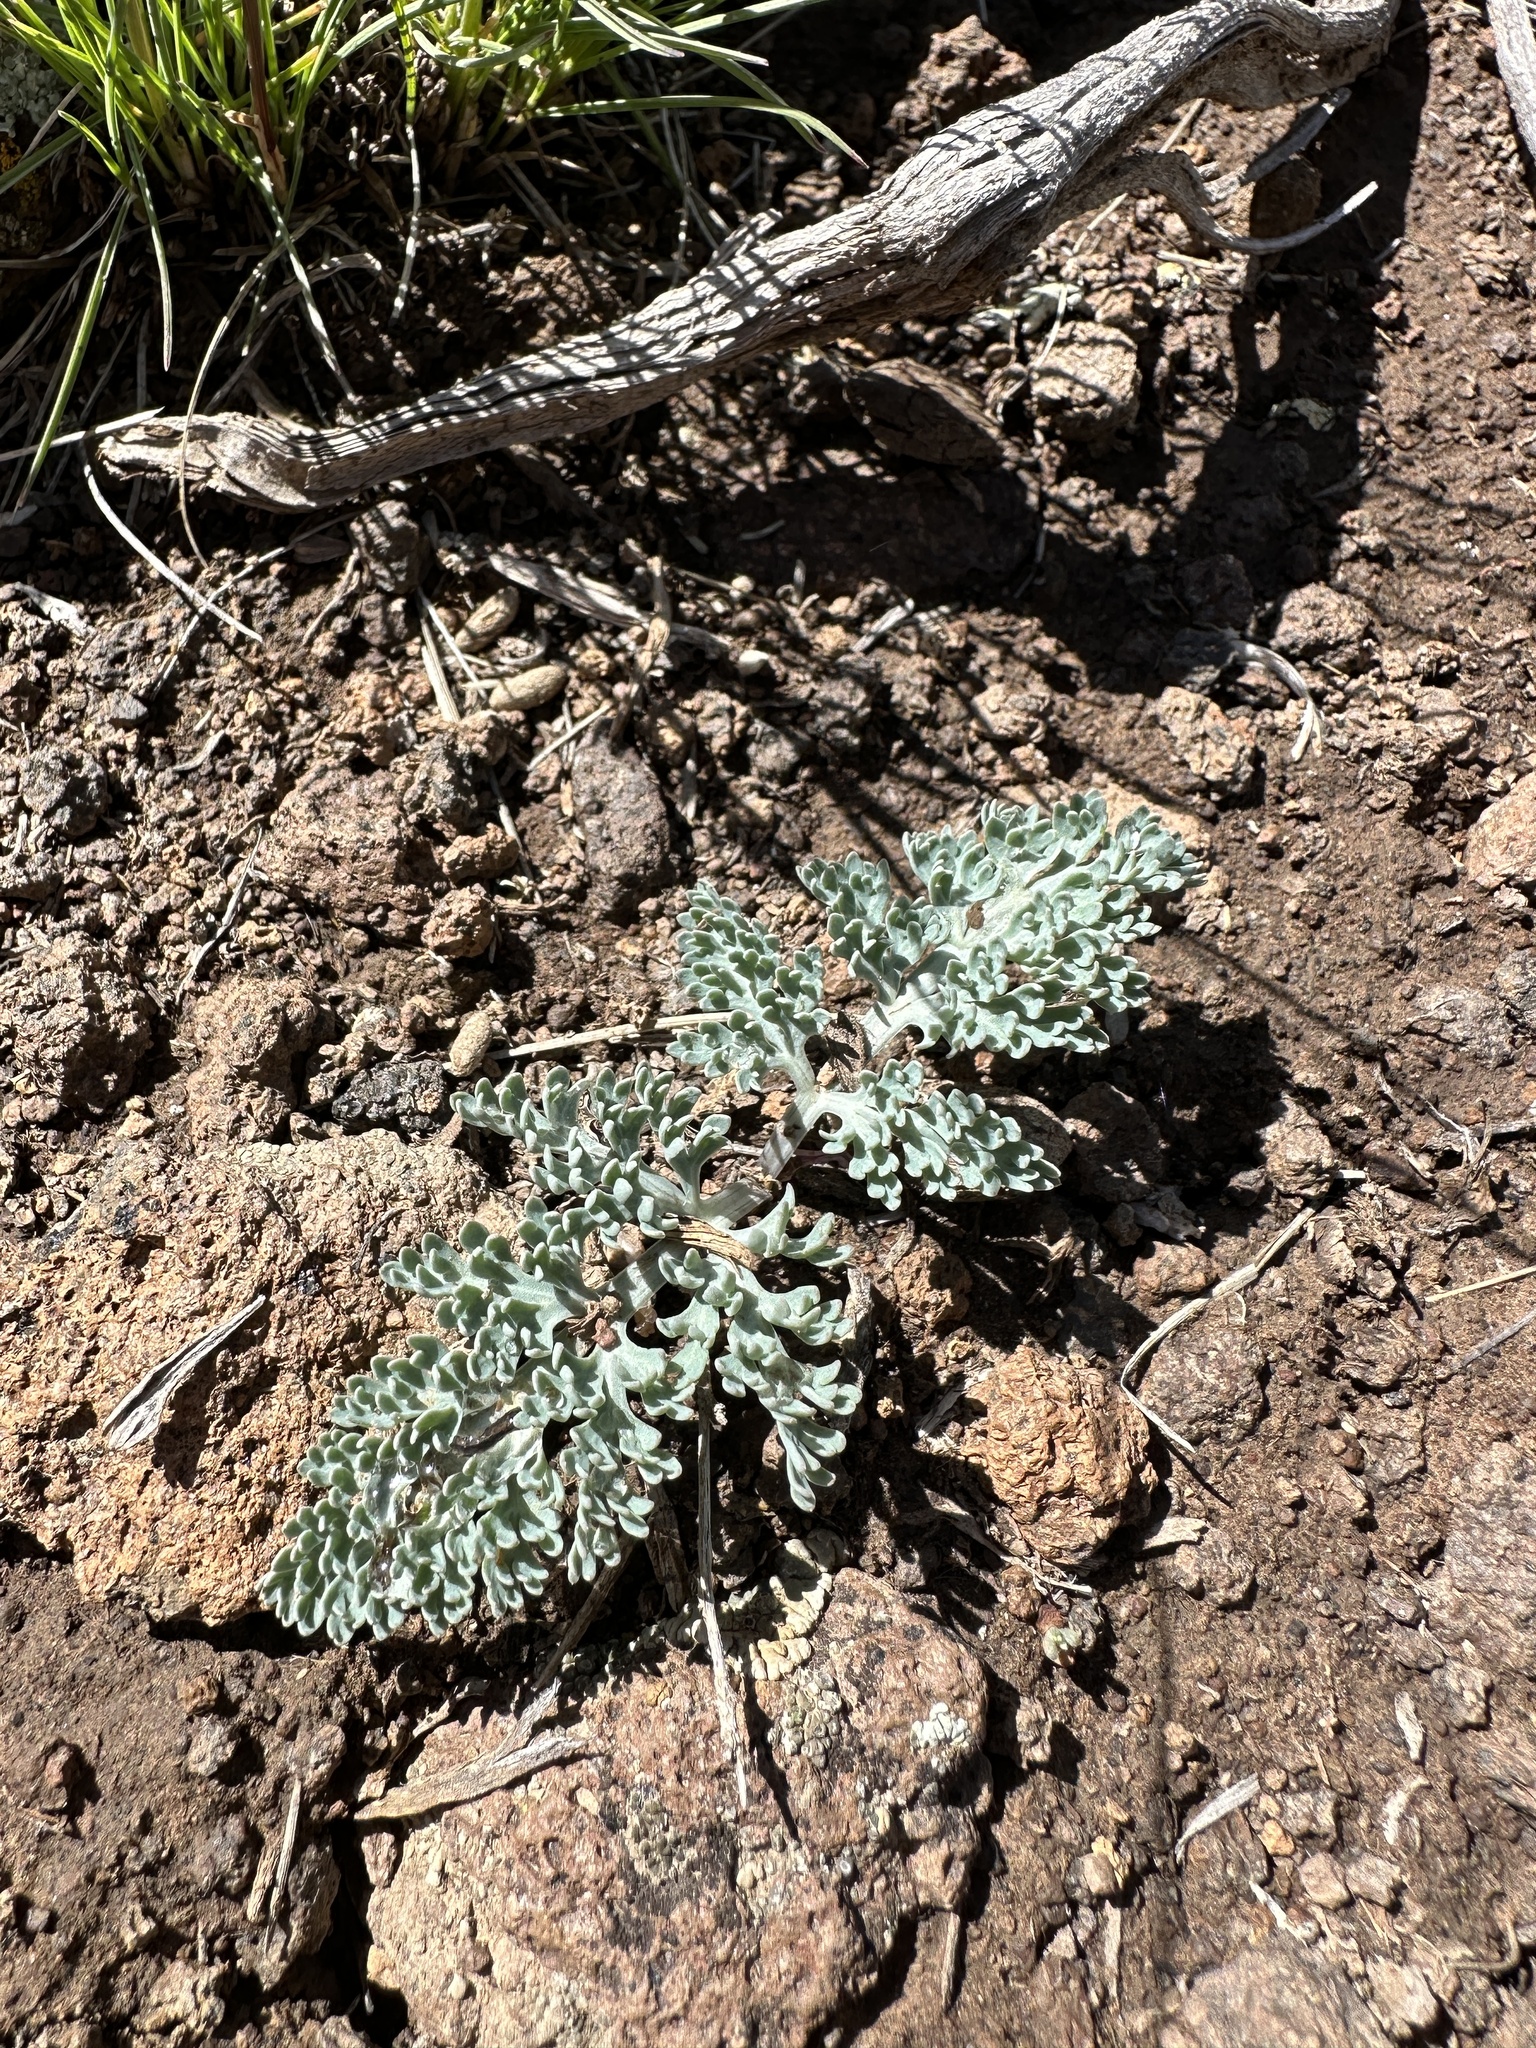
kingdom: Plantae
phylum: Tracheophyta
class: Magnoliopsida
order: Apiales
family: Apiaceae
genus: Vesper
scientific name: Vesper purpurascens
